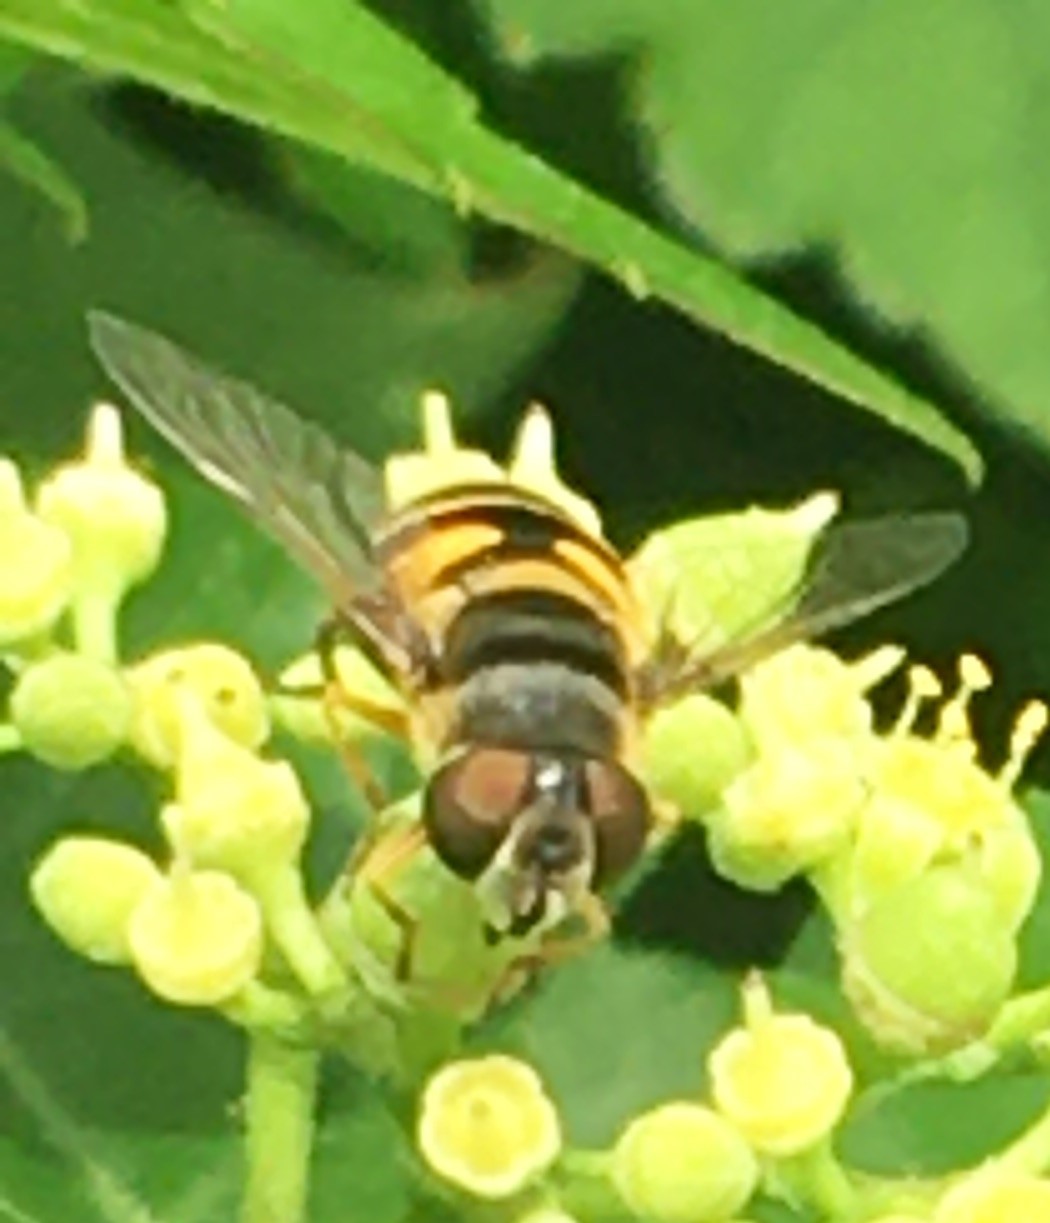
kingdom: Animalia
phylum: Arthropoda
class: Insecta
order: Diptera
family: Syrphidae
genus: Eristalis
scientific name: Eristalis transversa
